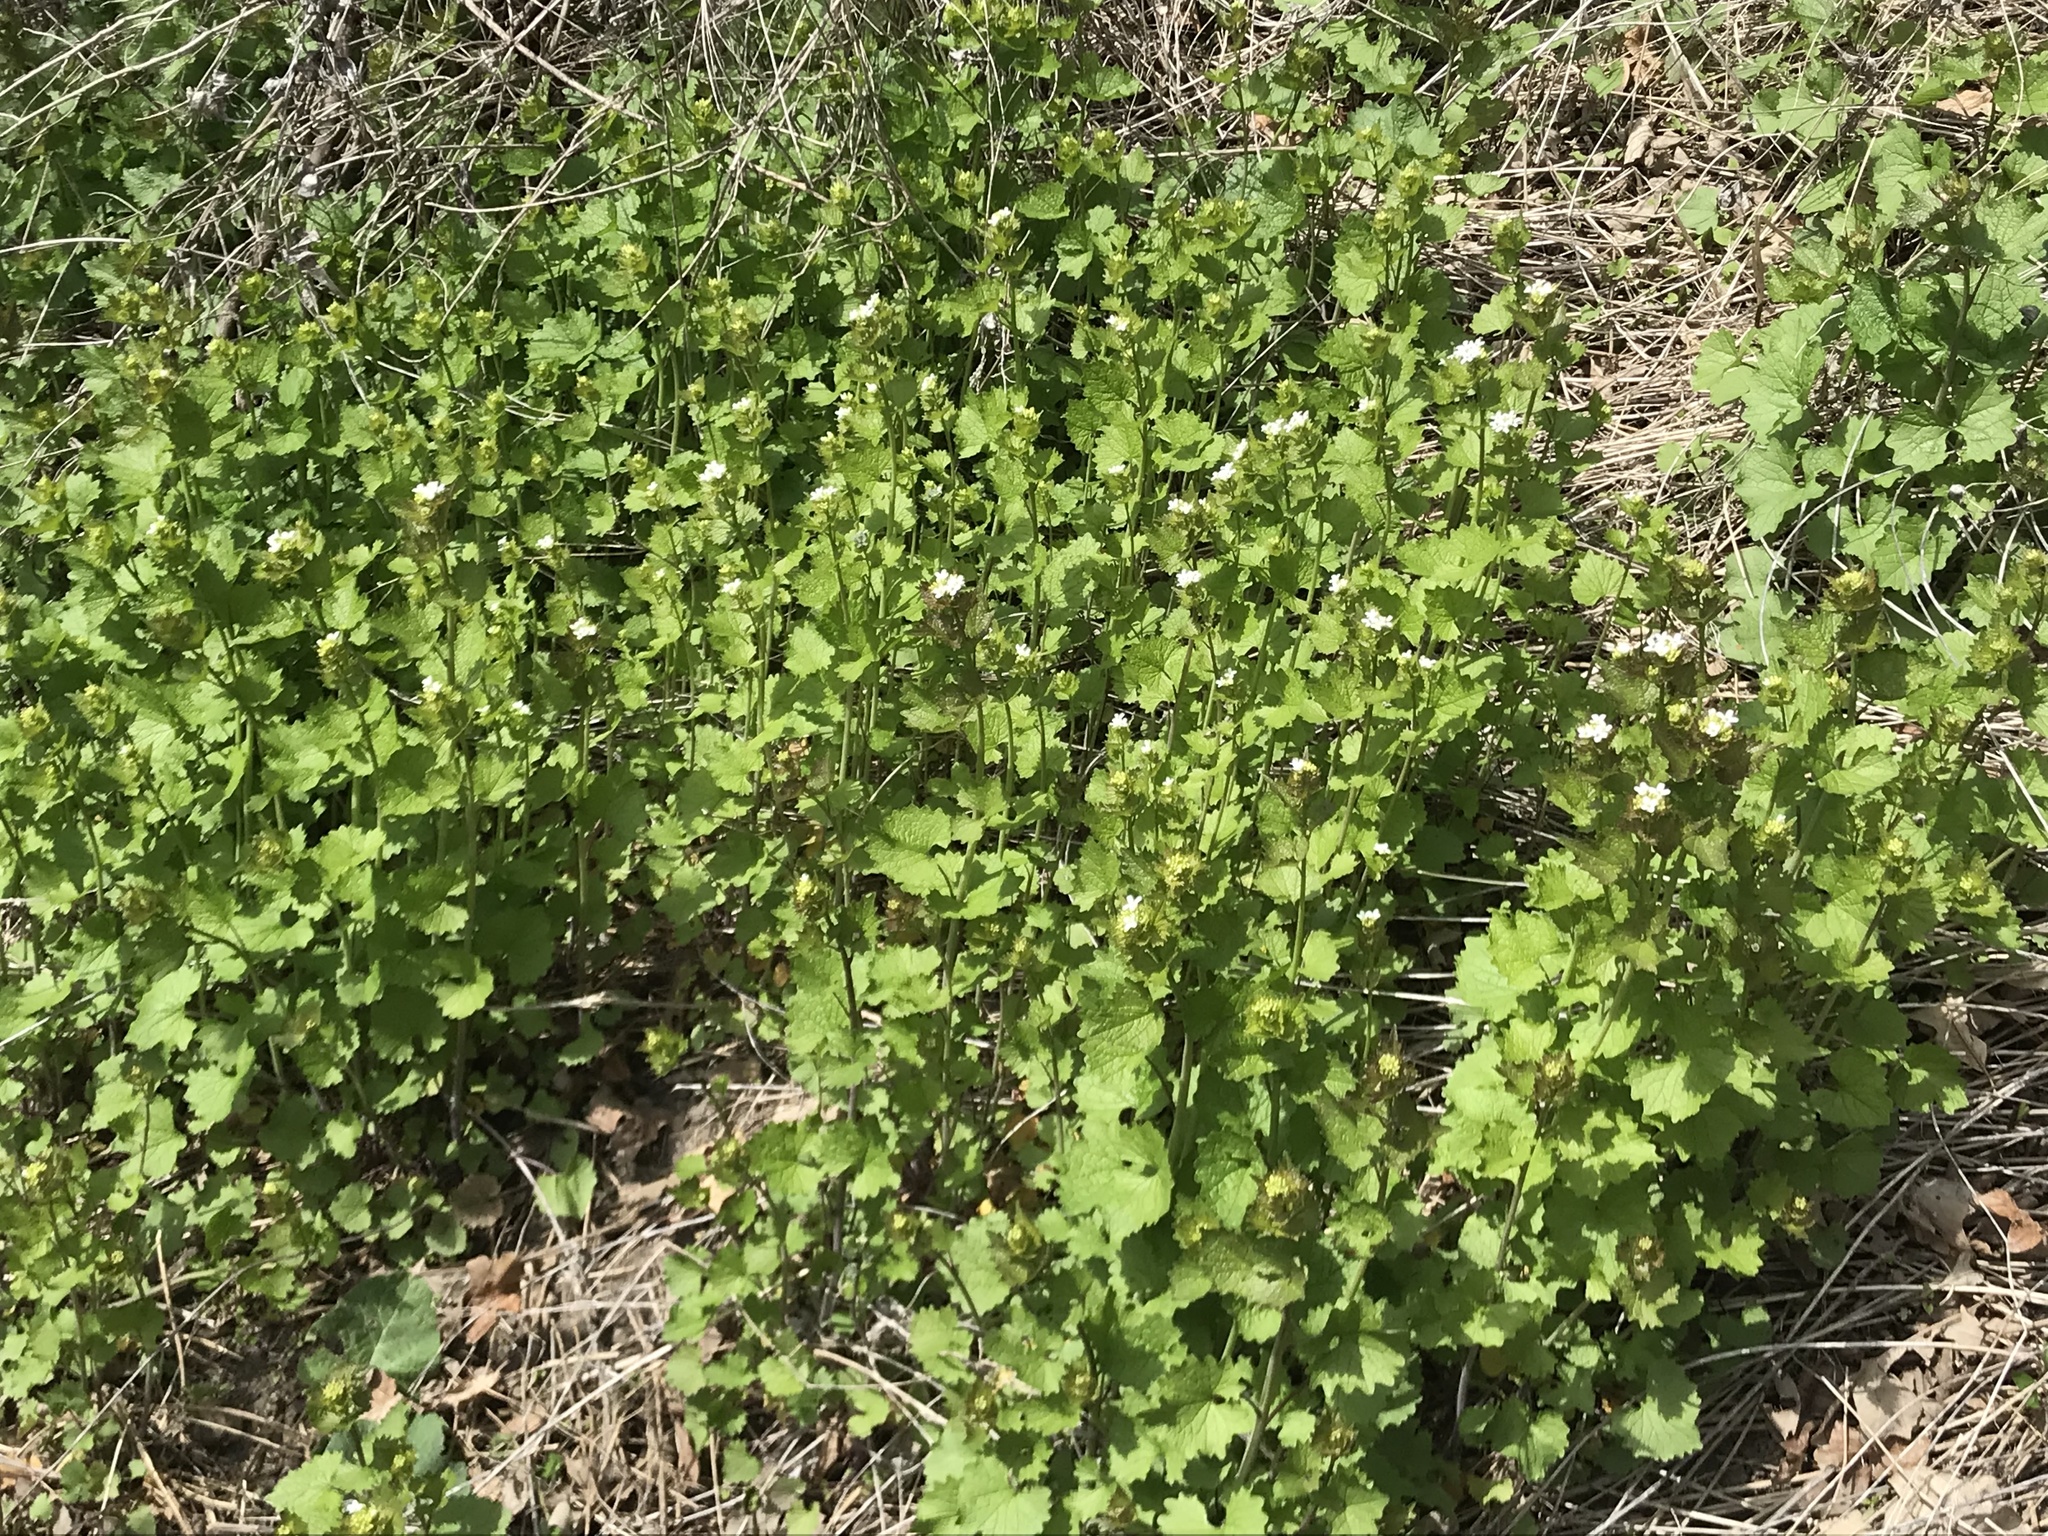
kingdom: Plantae
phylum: Tracheophyta
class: Magnoliopsida
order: Brassicales
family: Brassicaceae
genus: Alliaria
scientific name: Alliaria petiolata
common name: Garlic mustard
